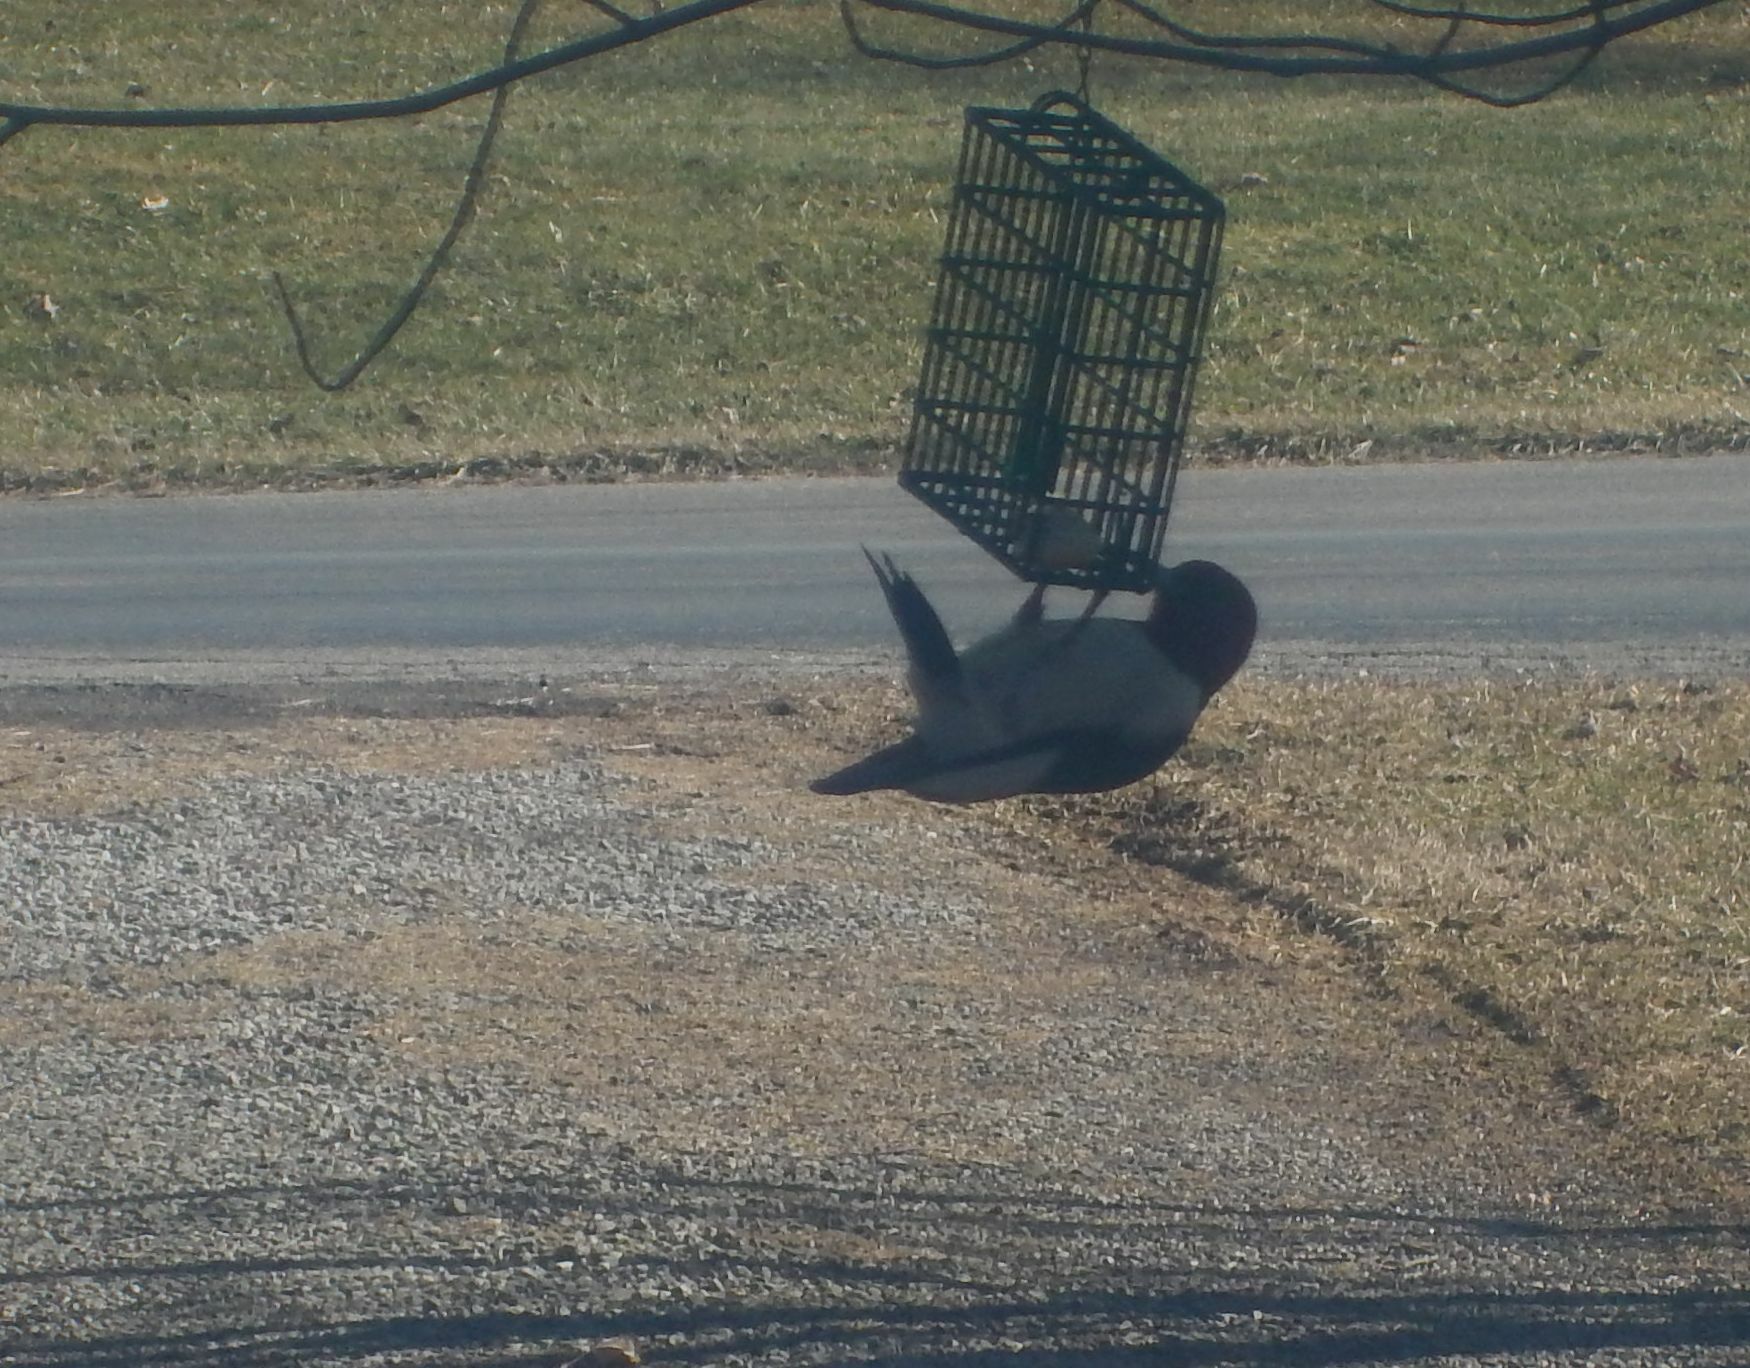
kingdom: Animalia
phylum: Chordata
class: Aves
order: Piciformes
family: Picidae
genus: Melanerpes
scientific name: Melanerpes erythrocephalus
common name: Red-headed woodpecker
